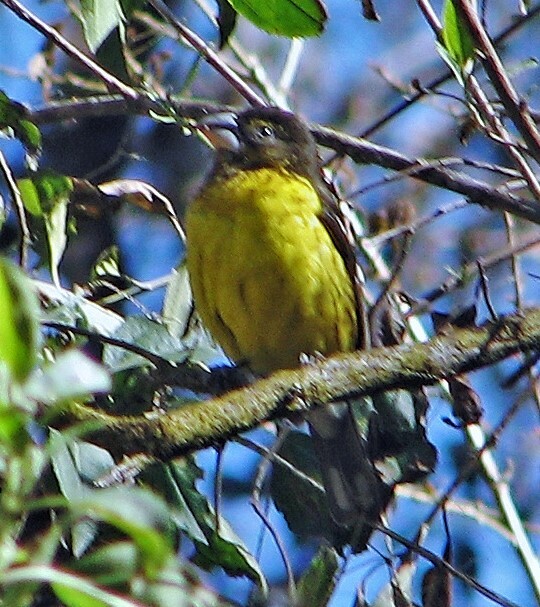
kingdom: Animalia
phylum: Chordata
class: Aves
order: Passeriformes
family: Cardinalidae
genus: Pheucticus
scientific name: Pheucticus aureoventris
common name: Black-backed grosbeak
